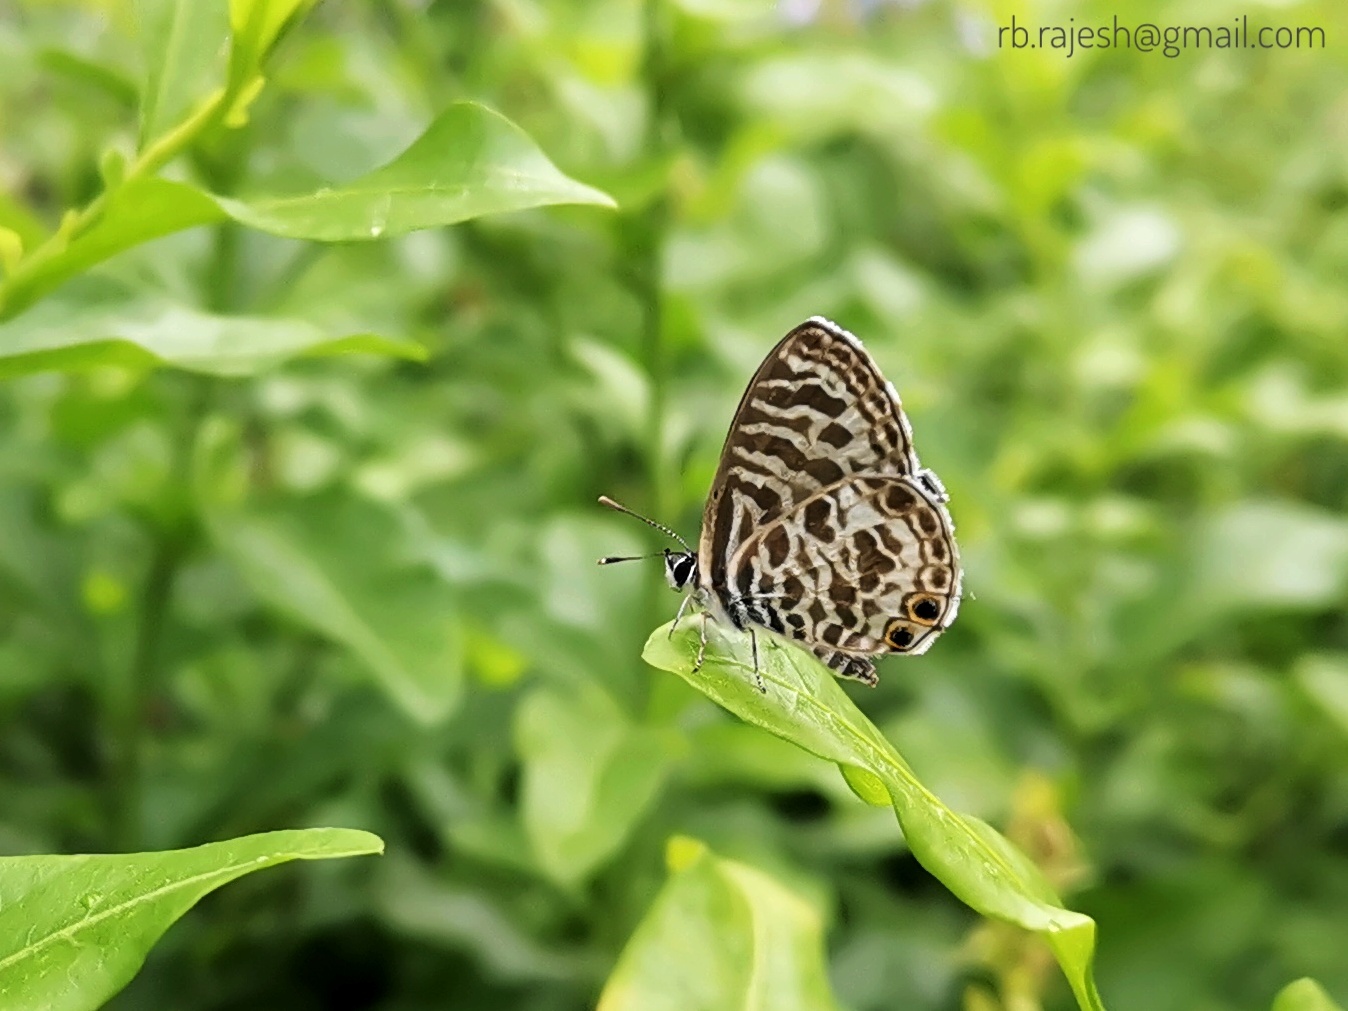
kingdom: Animalia
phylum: Arthropoda
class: Insecta
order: Lepidoptera
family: Lycaenidae
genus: Leptotes
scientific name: Leptotes plinius
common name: Zebra blue
